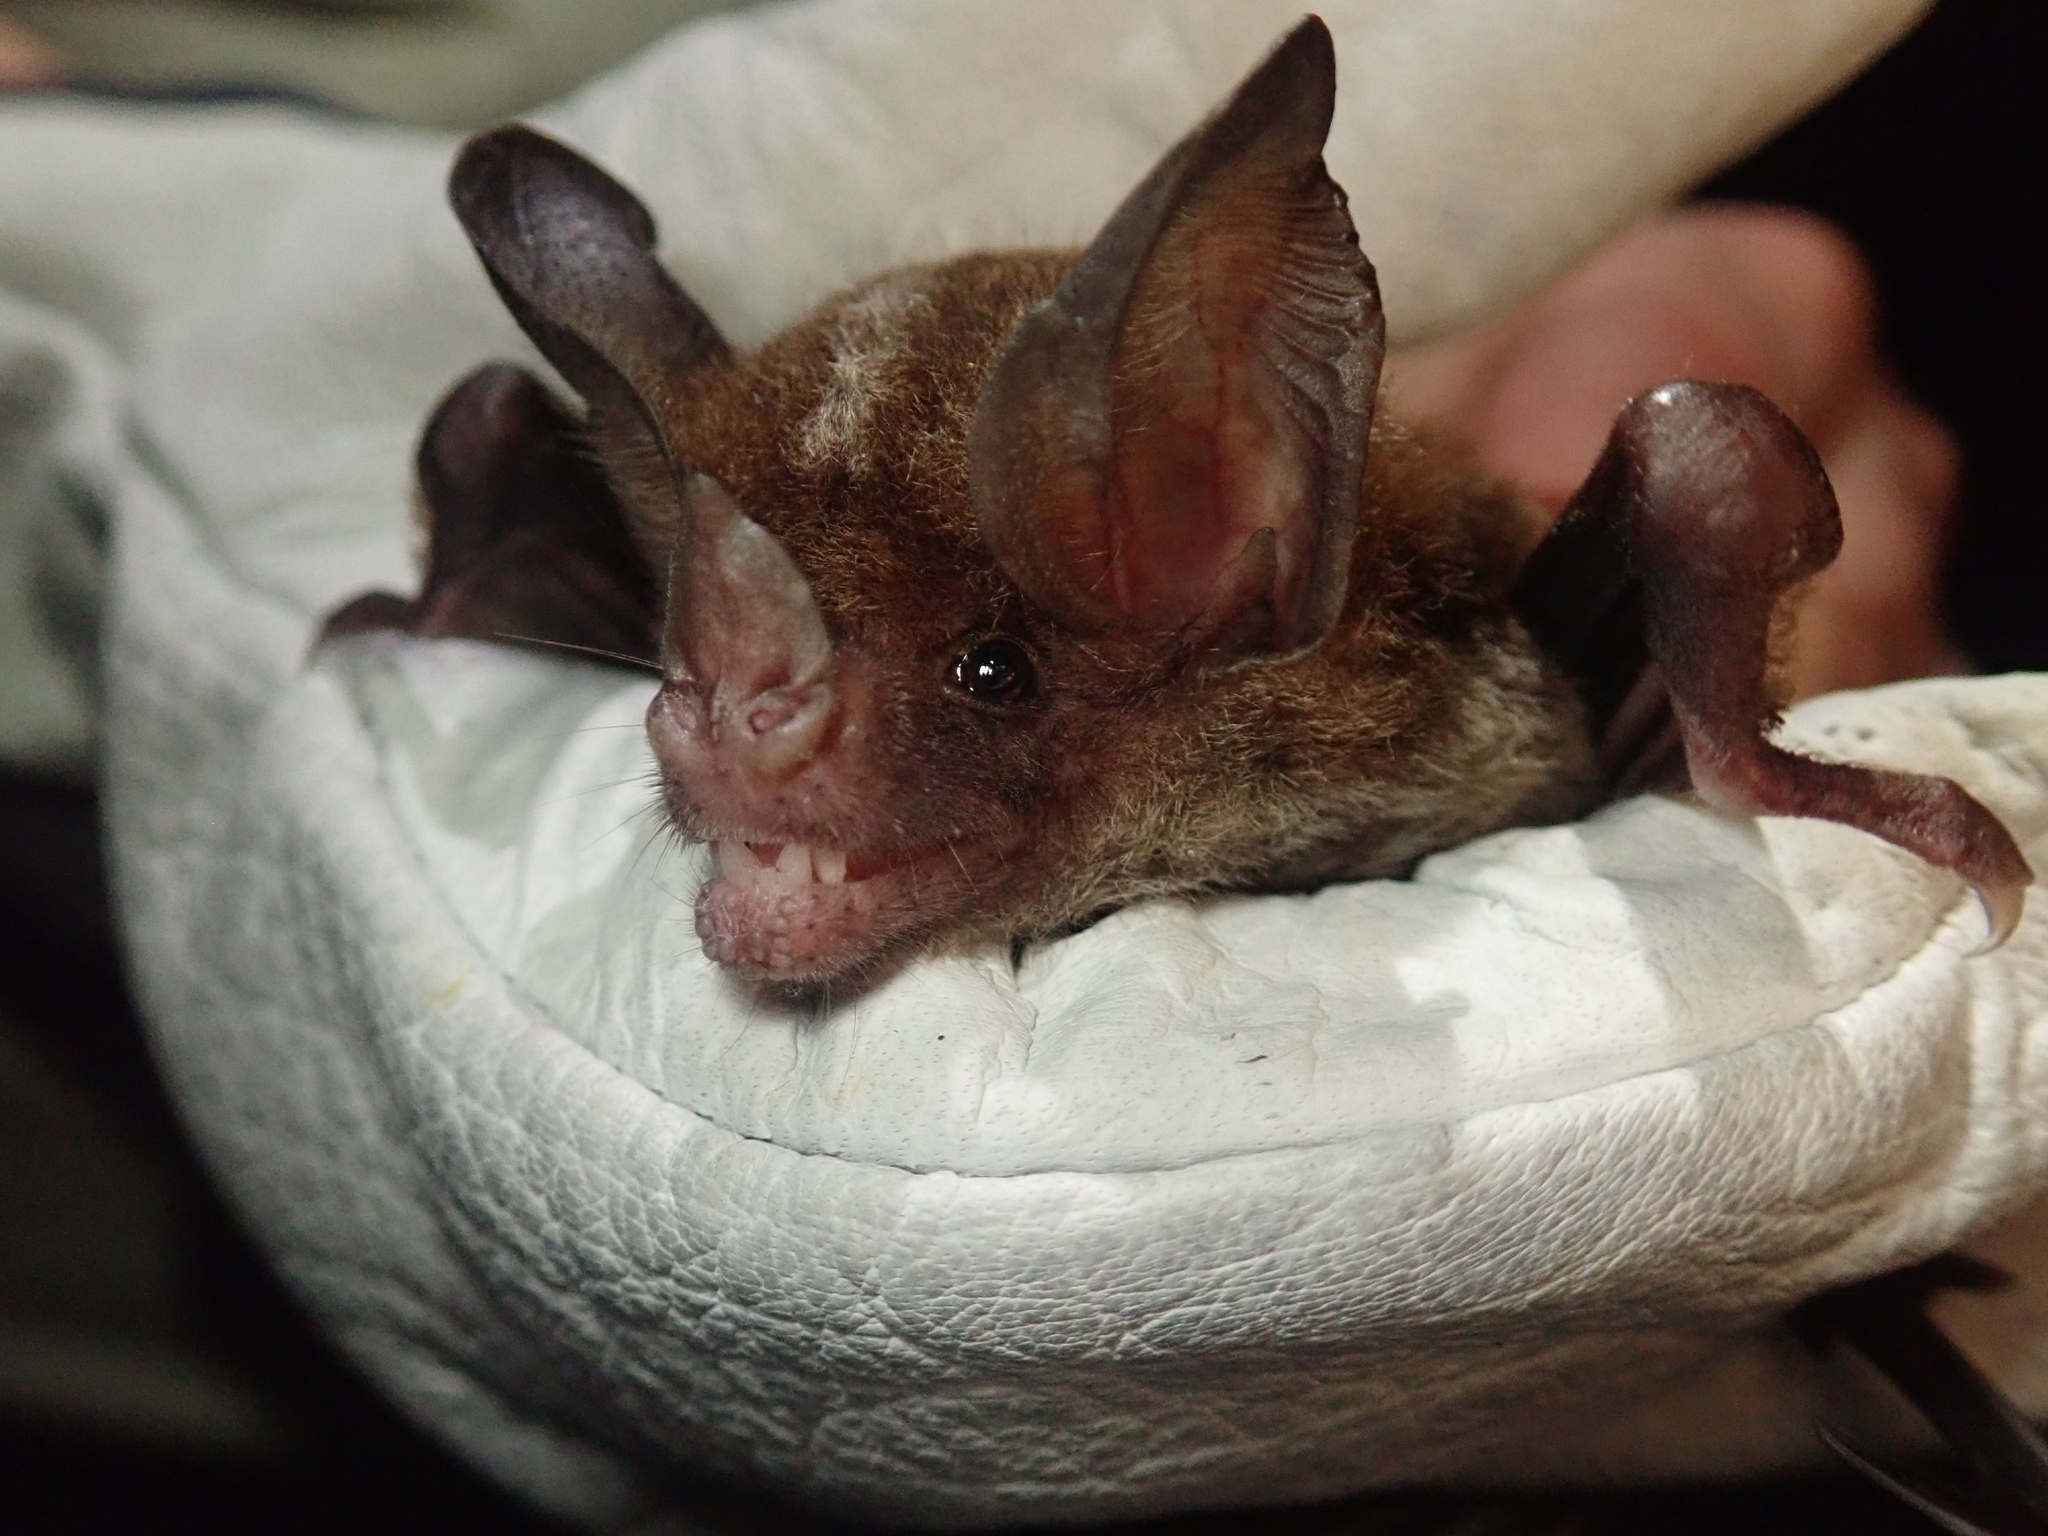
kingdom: Animalia
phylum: Chordata
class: Mammalia
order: Chiroptera
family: Phyllostomidae
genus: Tonatia
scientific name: Tonatia bakeri
